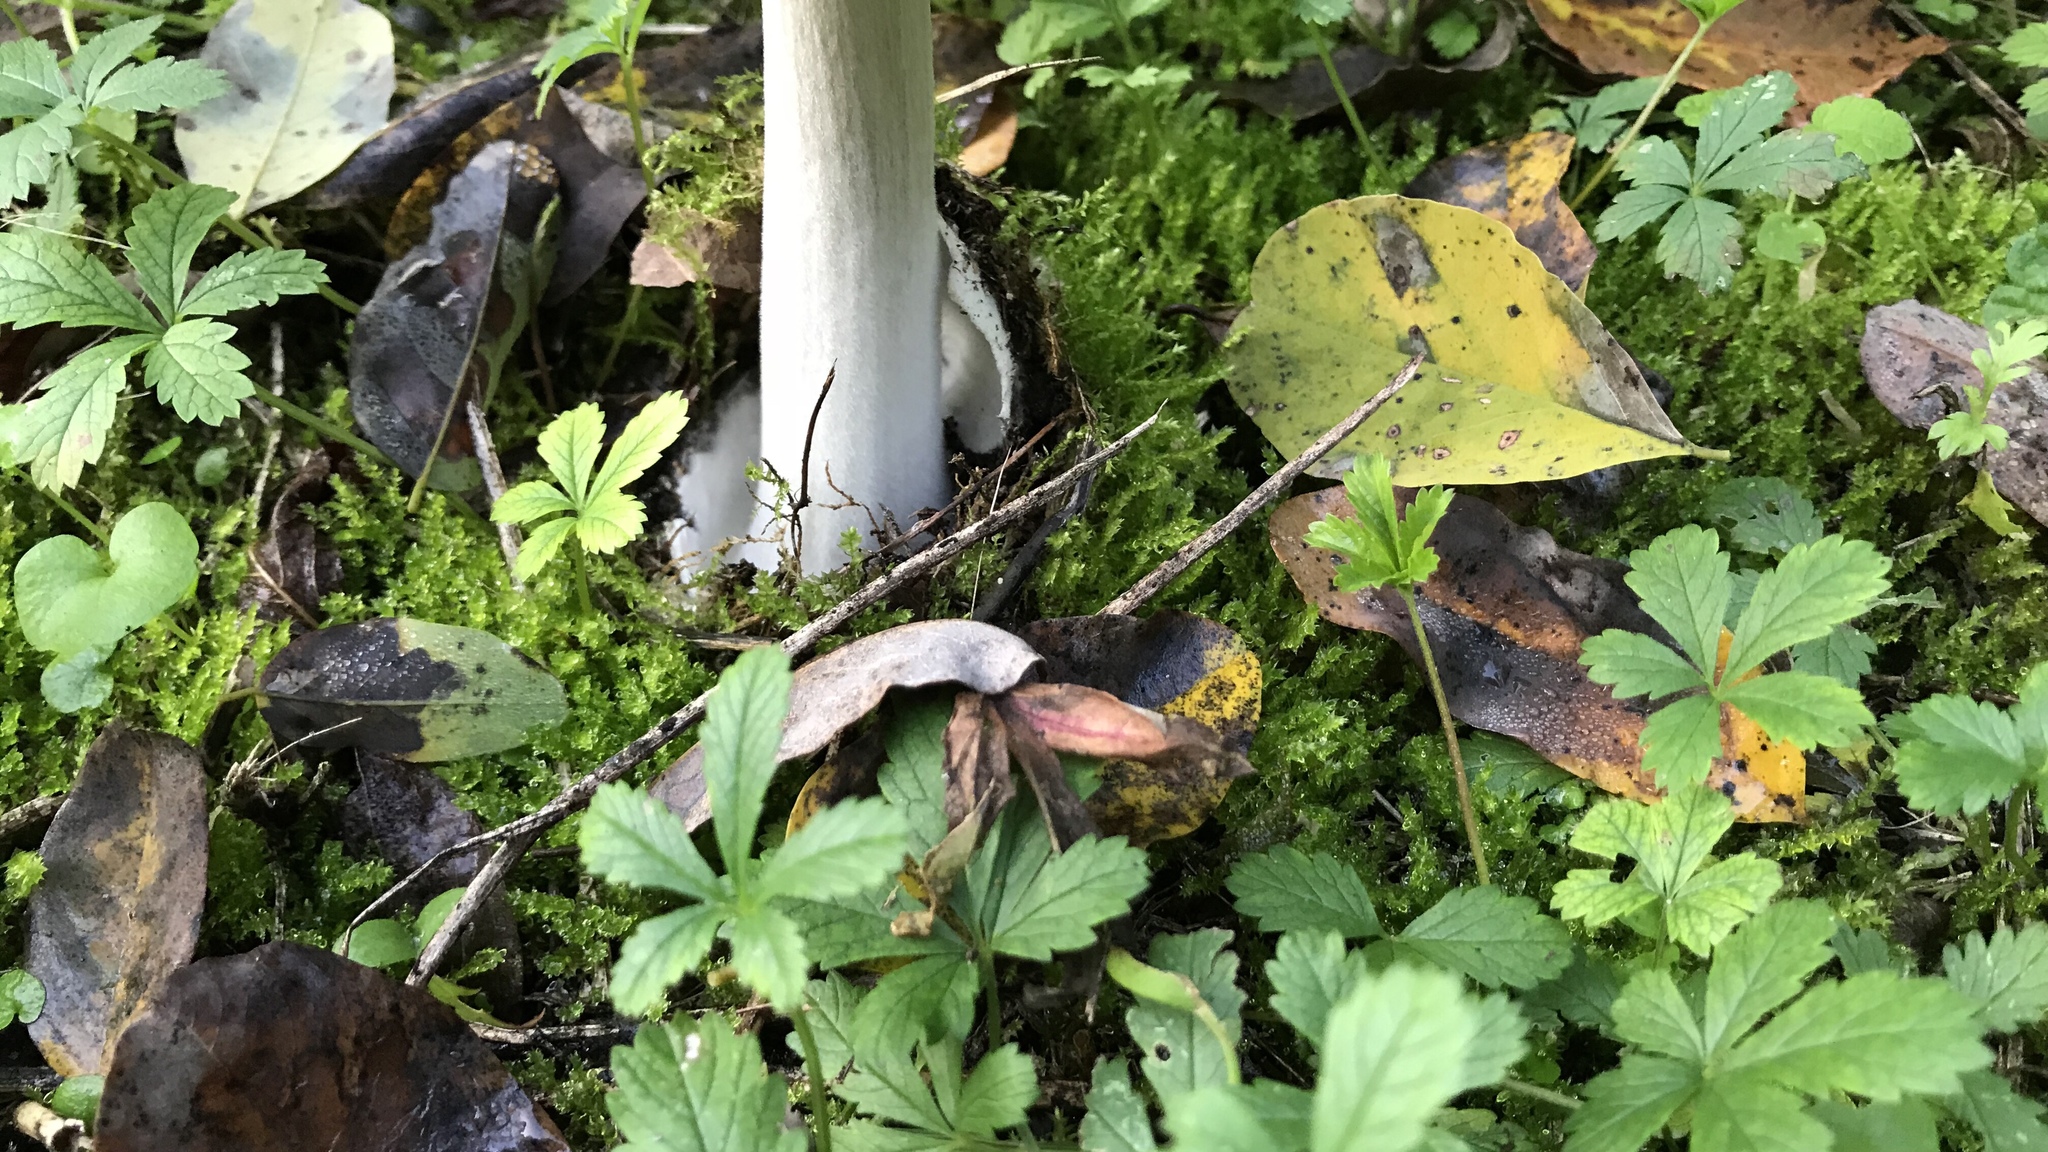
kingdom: Fungi
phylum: Basidiomycota
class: Agaricomycetes
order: Agaricales
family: Pluteaceae
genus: Volvopluteus
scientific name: Volvopluteus gloiocephalus
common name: Stubble rosegill
